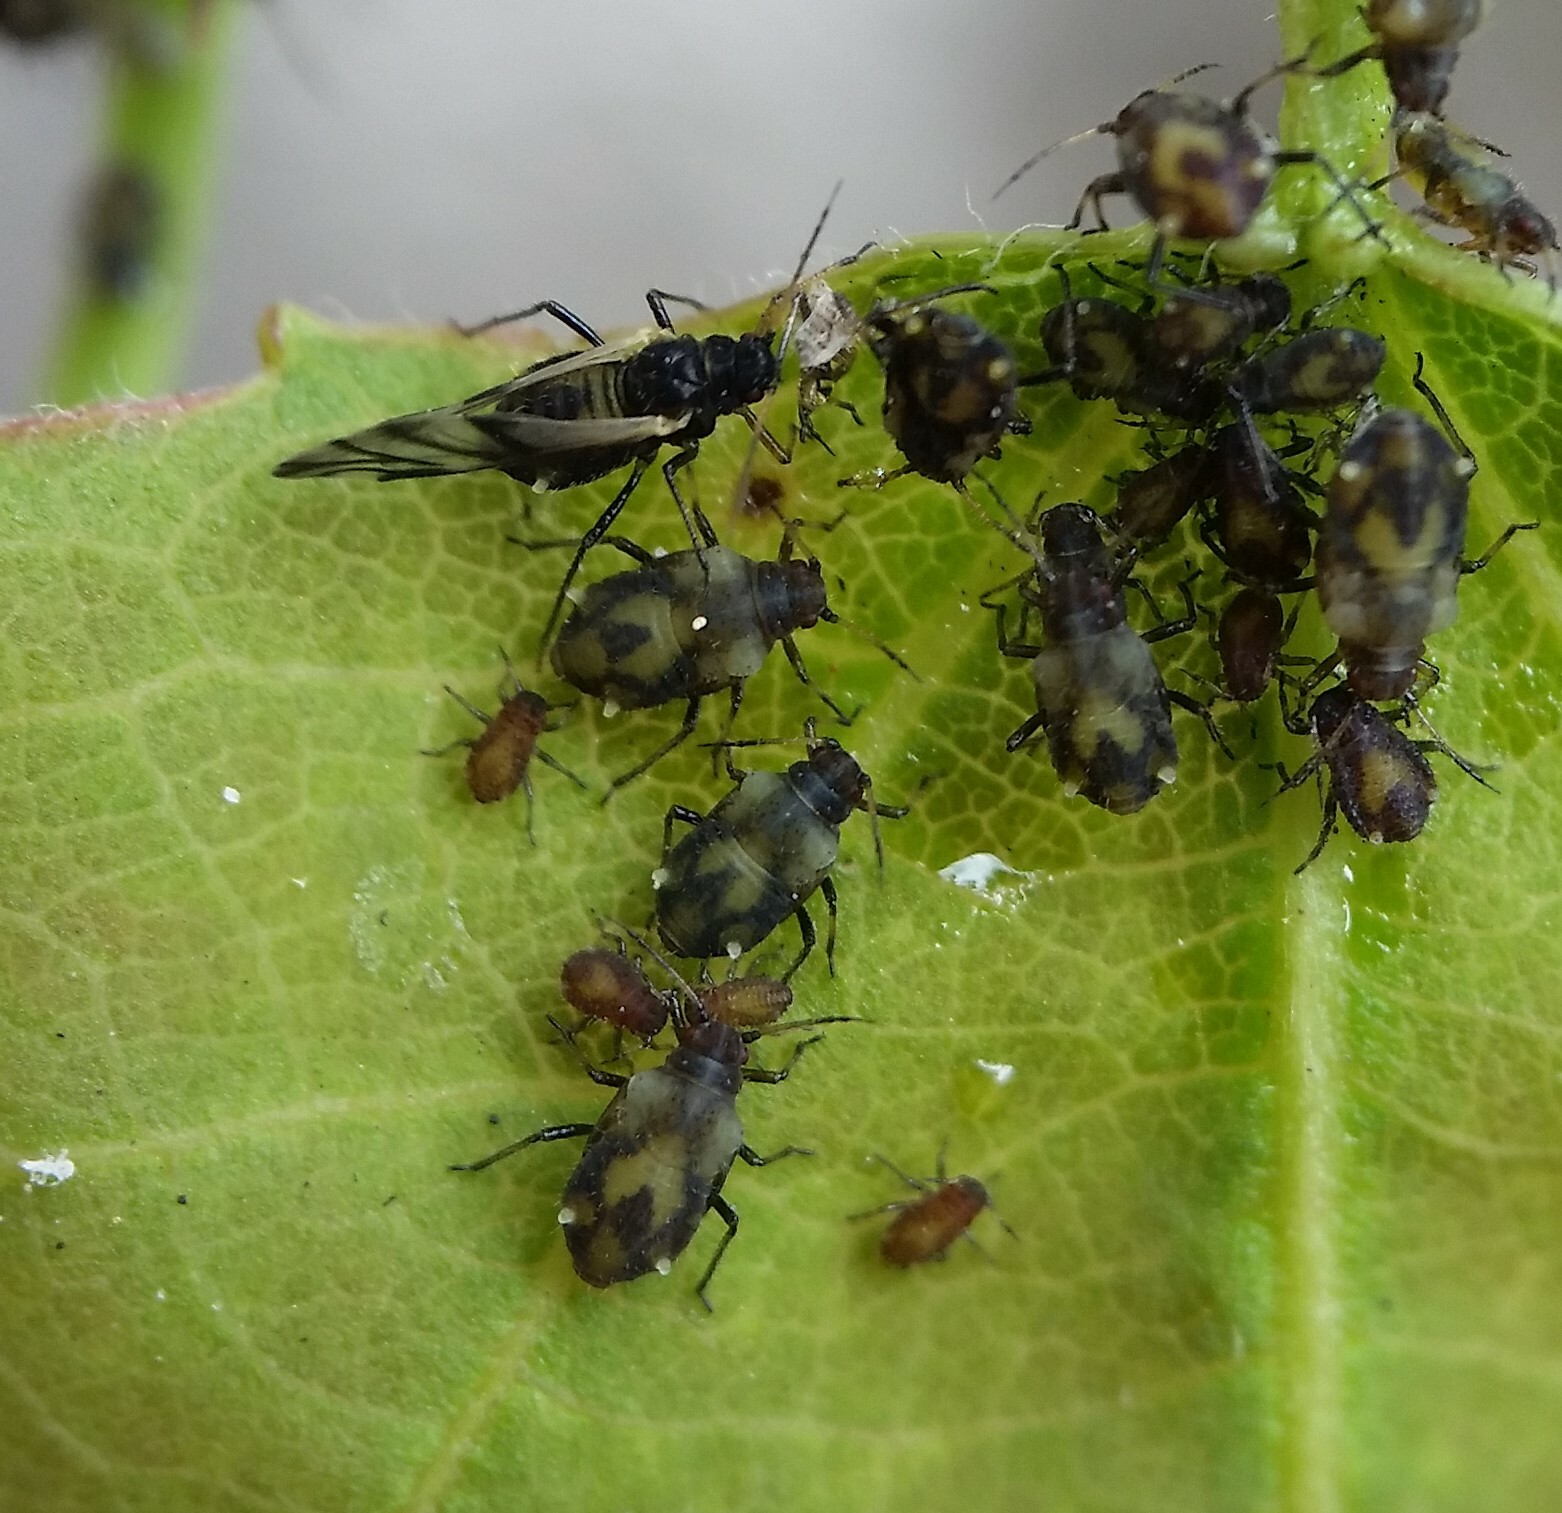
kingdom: Animalia
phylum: Arthropoda
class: Insecta
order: Hemiptera
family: Aphididae
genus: Chaitophorus
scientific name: Chaitophorus populicola
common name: Smokywinged poplar aphid
